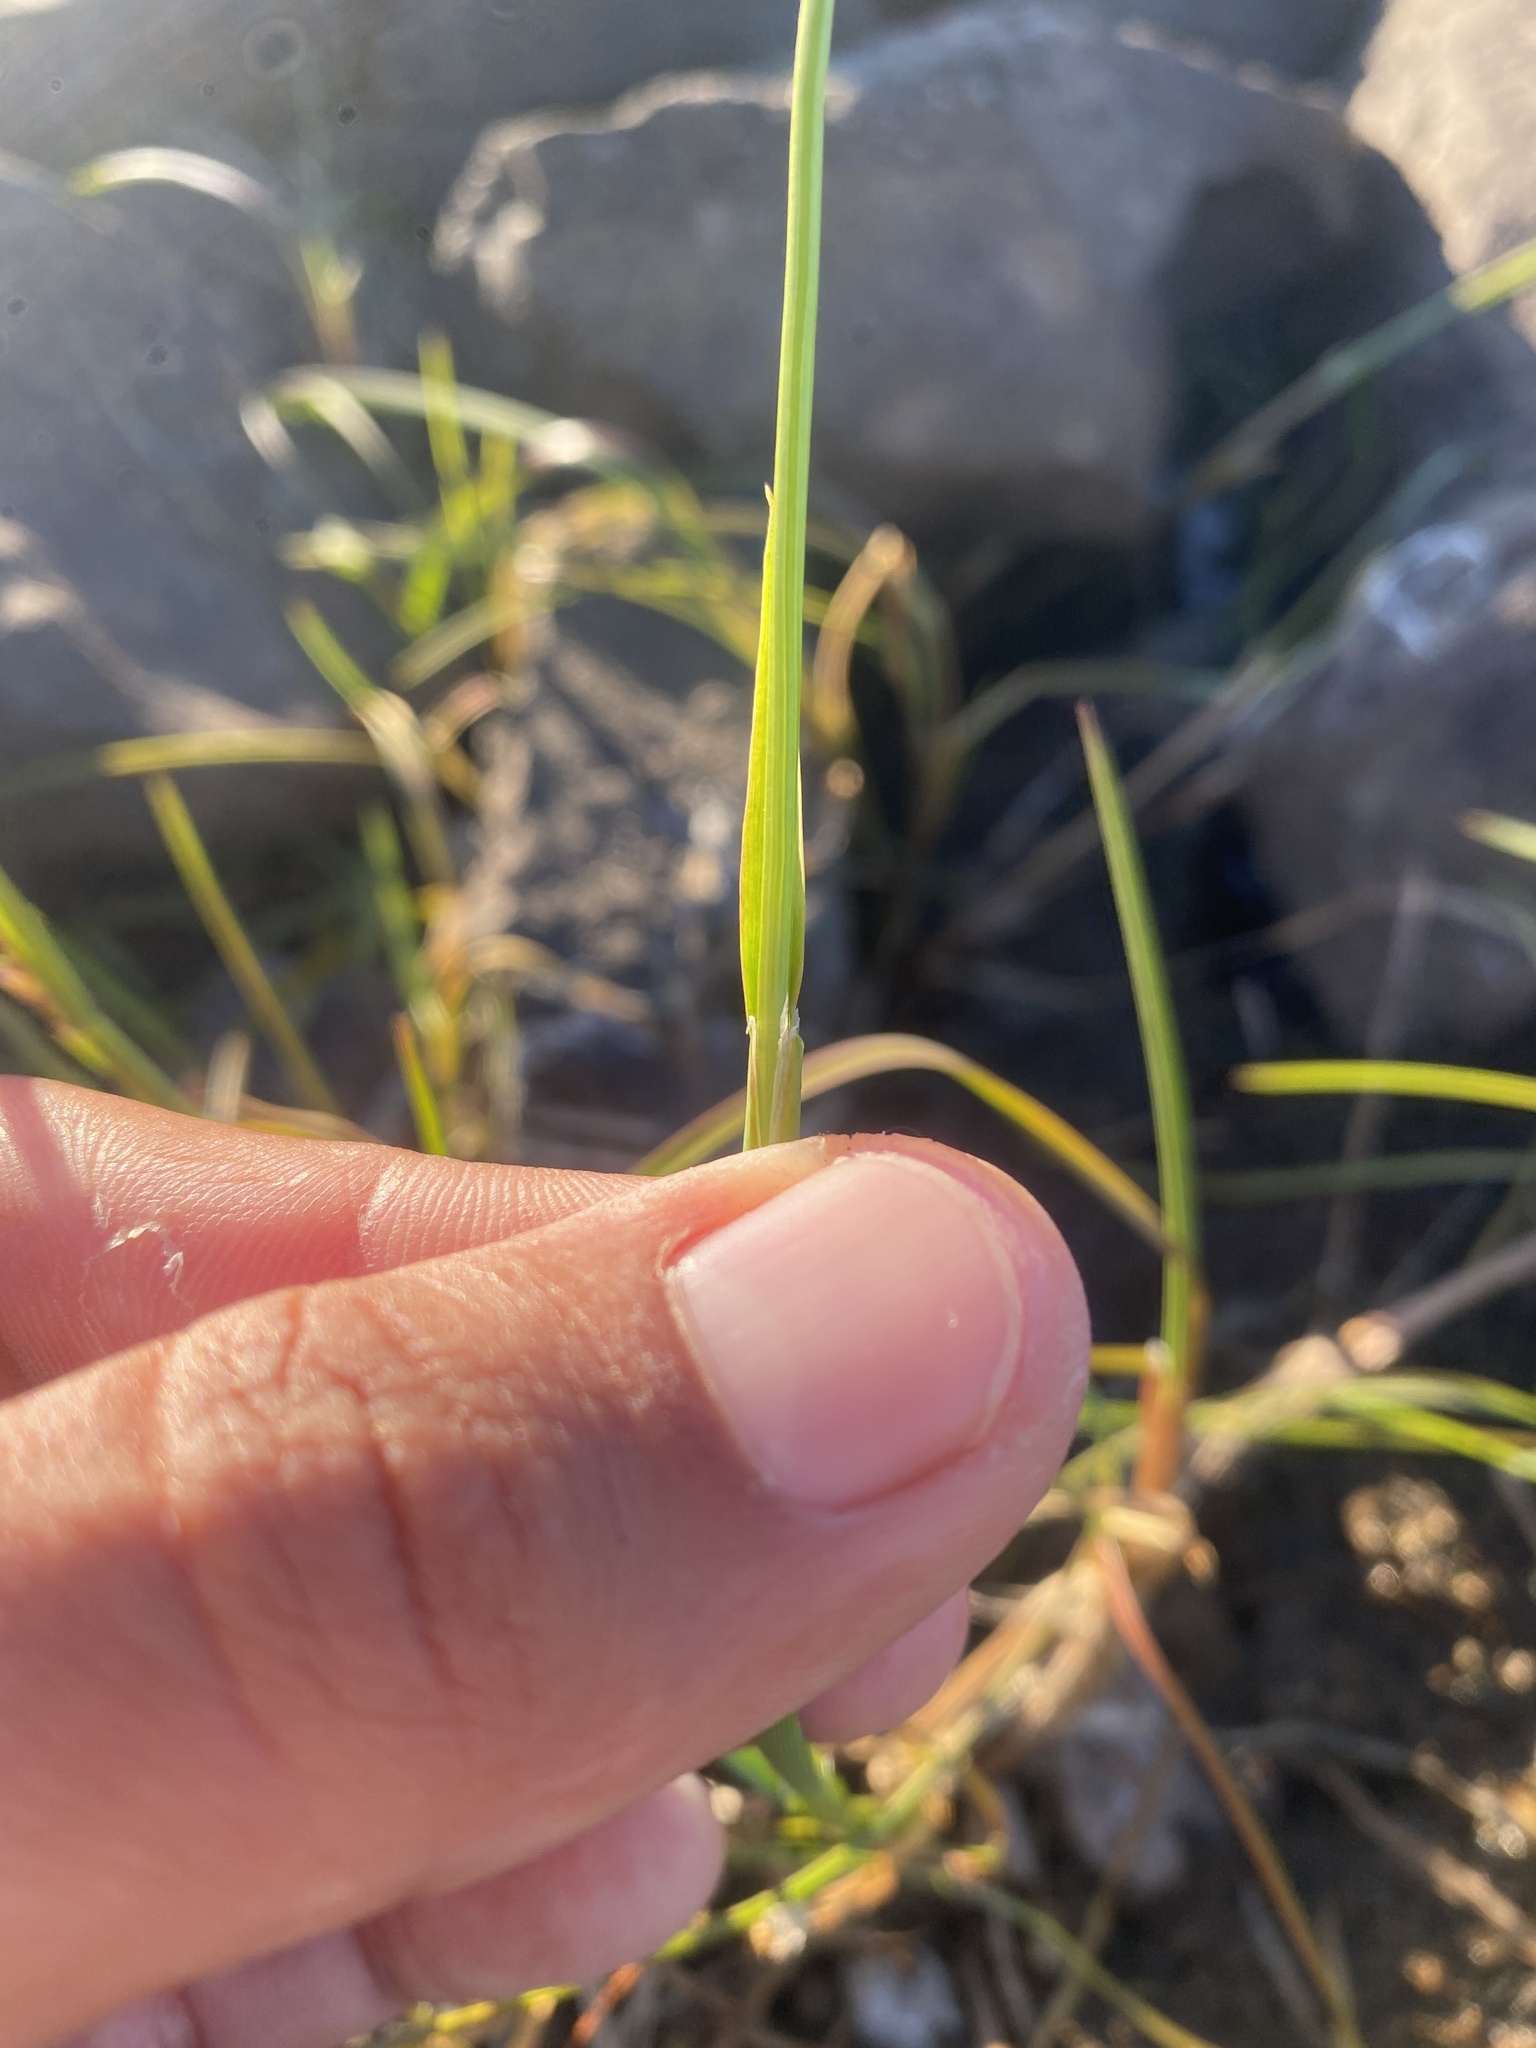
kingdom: Plantae
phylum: Tracheophyta
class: Liliopsida
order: Poales
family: Poaceae
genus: Pleuropogon
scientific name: Pleuropogon sabinei
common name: Sabine's false semaphoregrass
